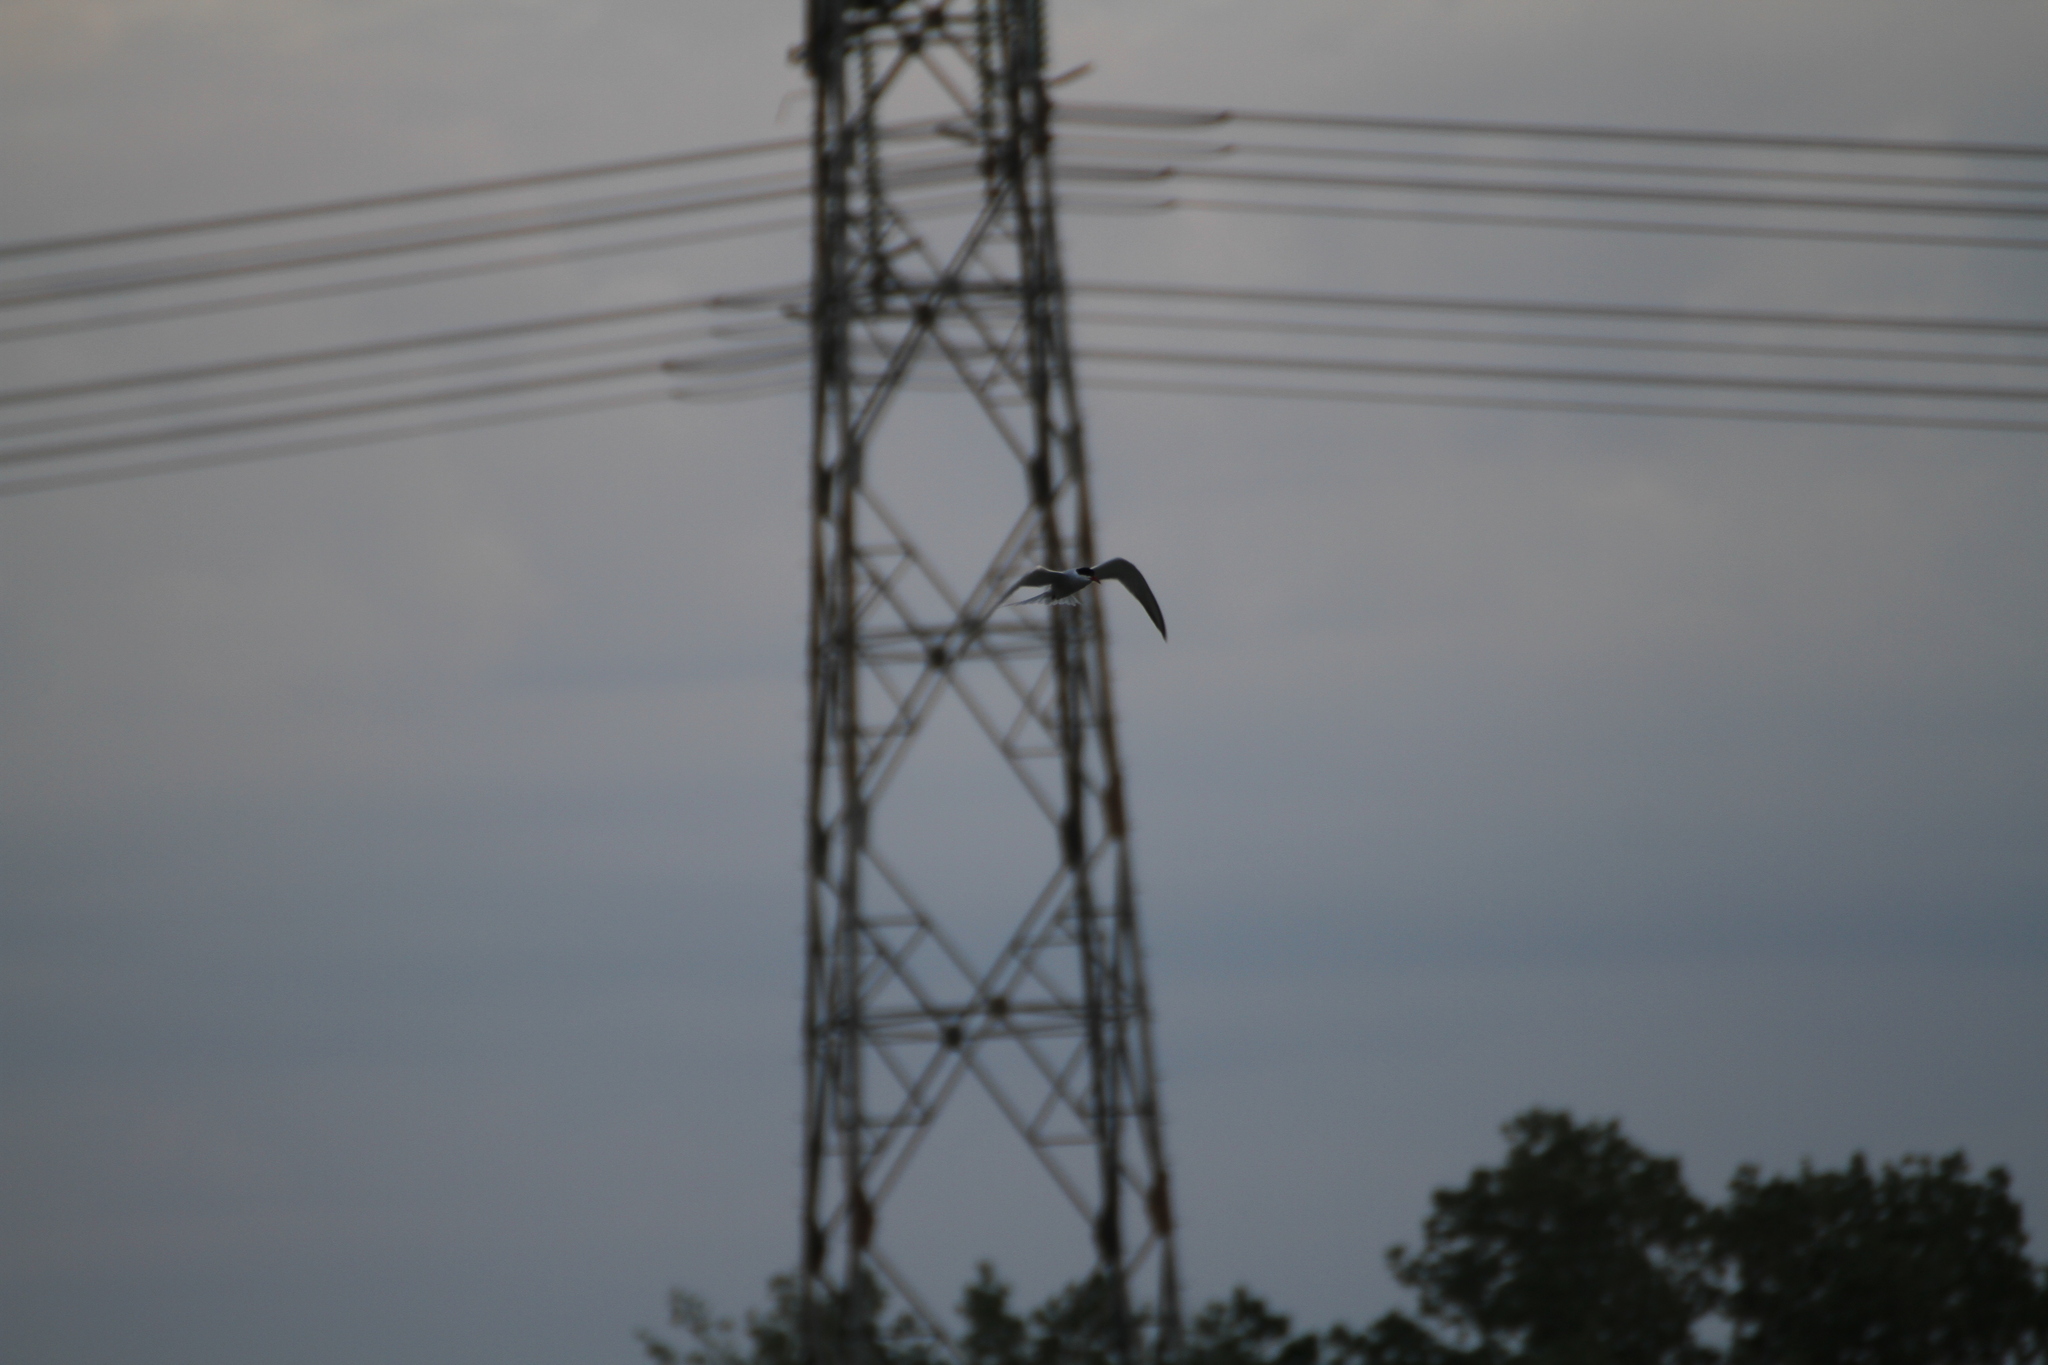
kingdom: Animalia
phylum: Chordata
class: Aves
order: Charadriiformes
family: Laridae
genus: Sterna
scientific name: Sterna hirundo
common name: Common tern
